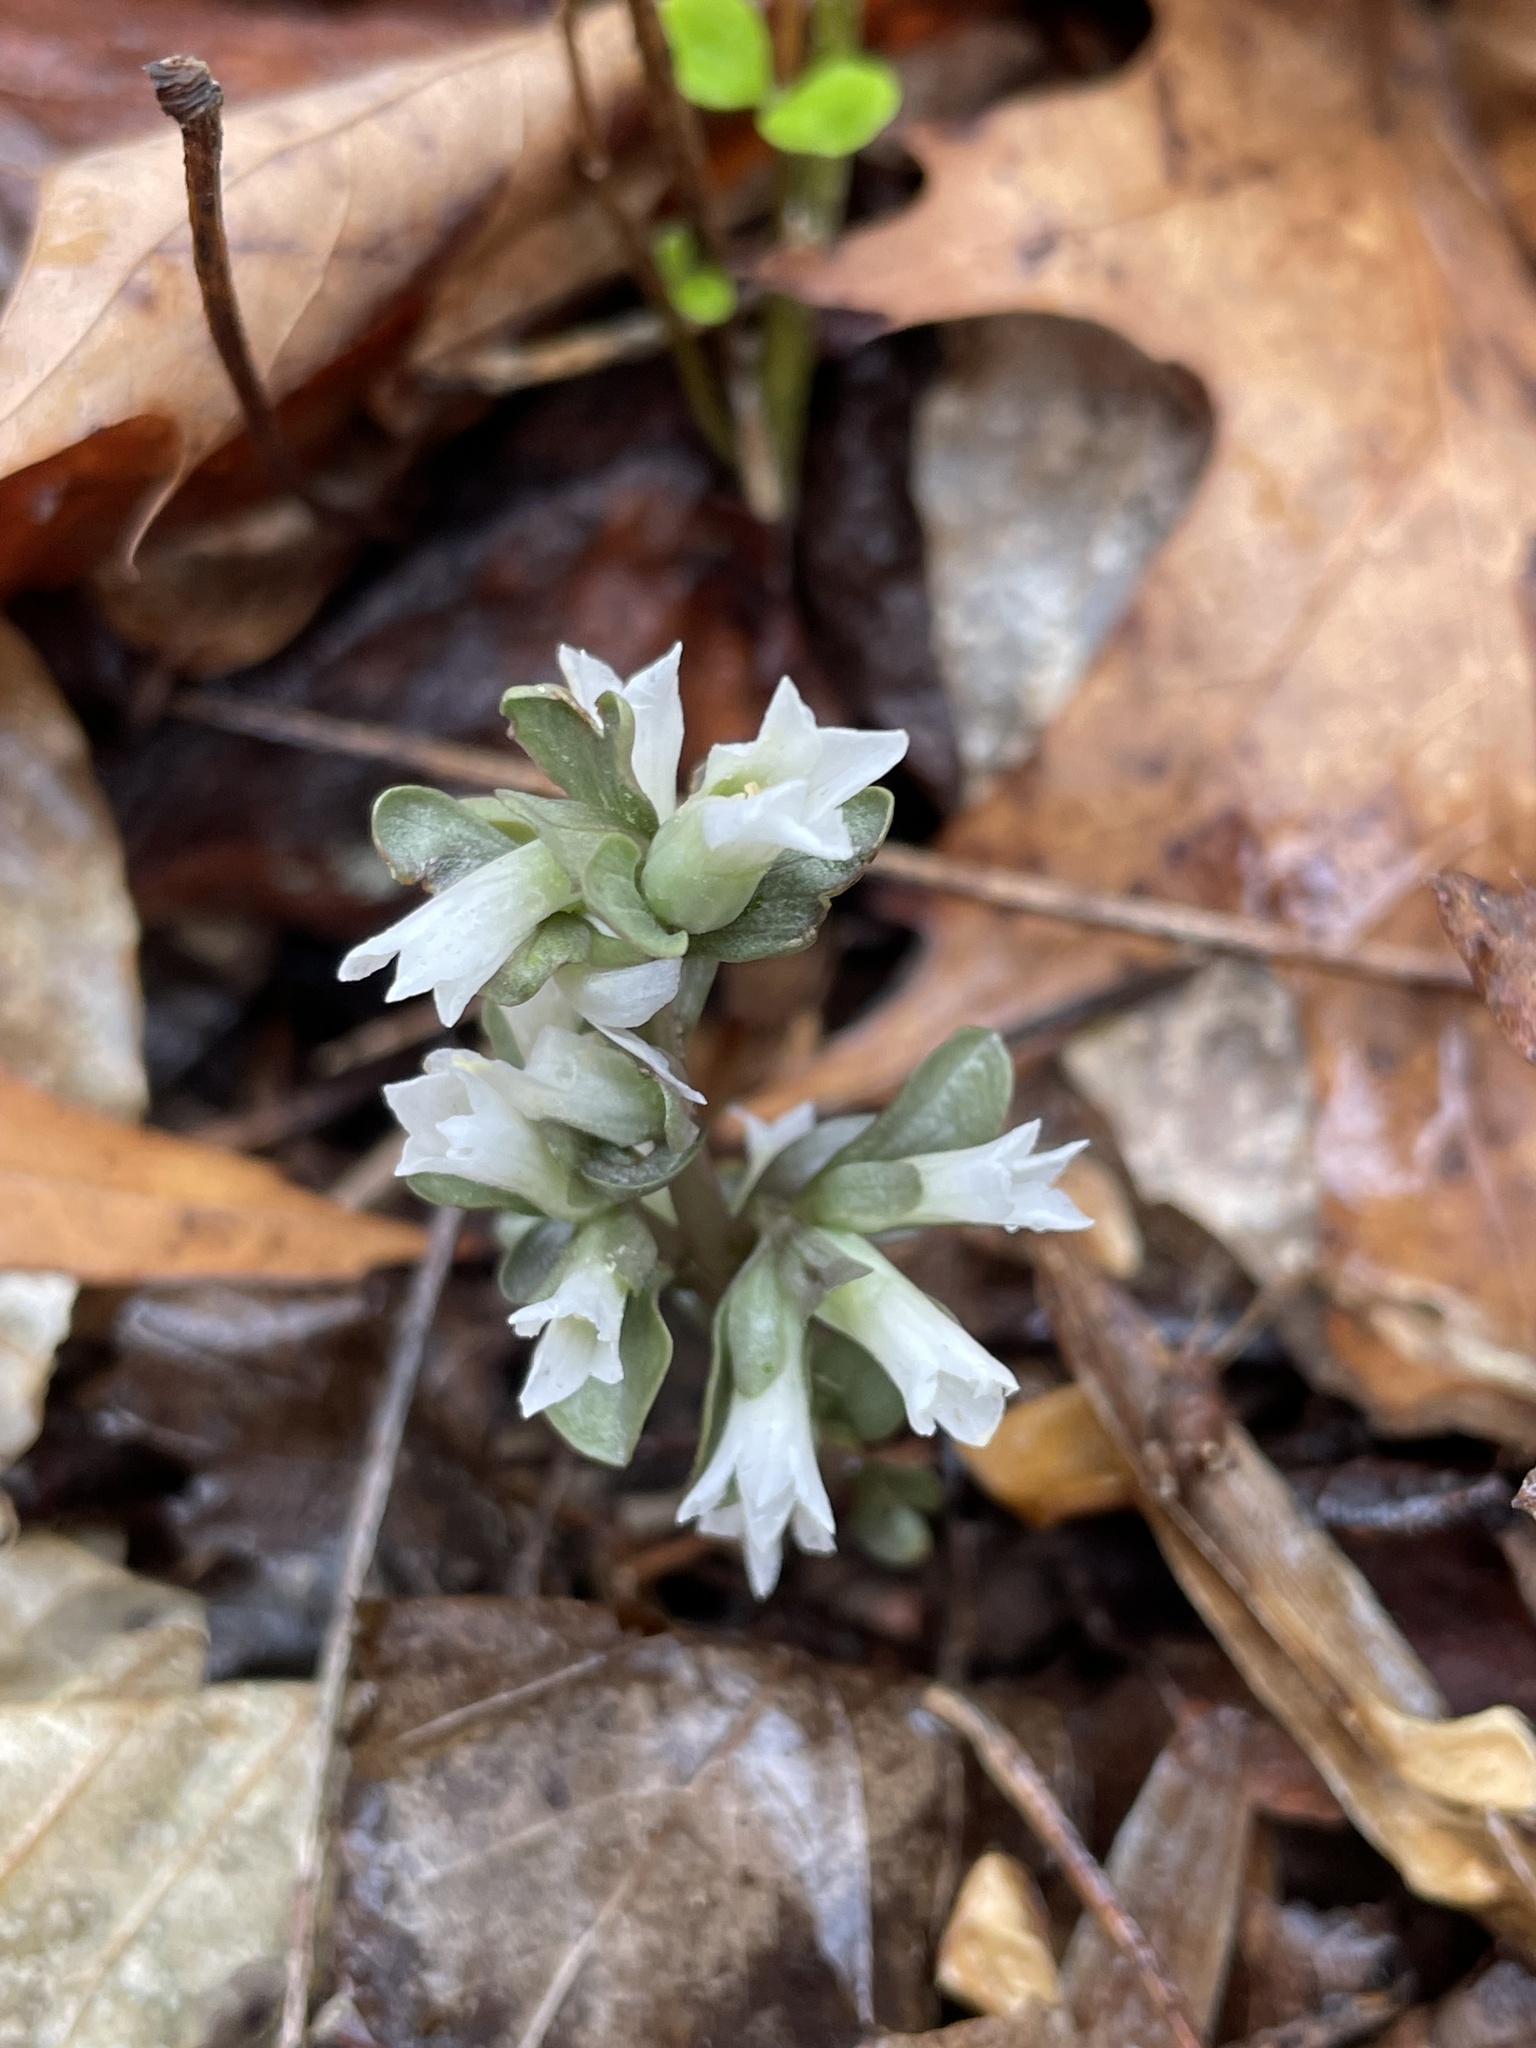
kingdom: Plantae
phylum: Tracheophyta
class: Magnoliopsida
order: Gentianales
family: Gentianaceae
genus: Obolaria
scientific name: Obolaria virginica
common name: Pennywort
